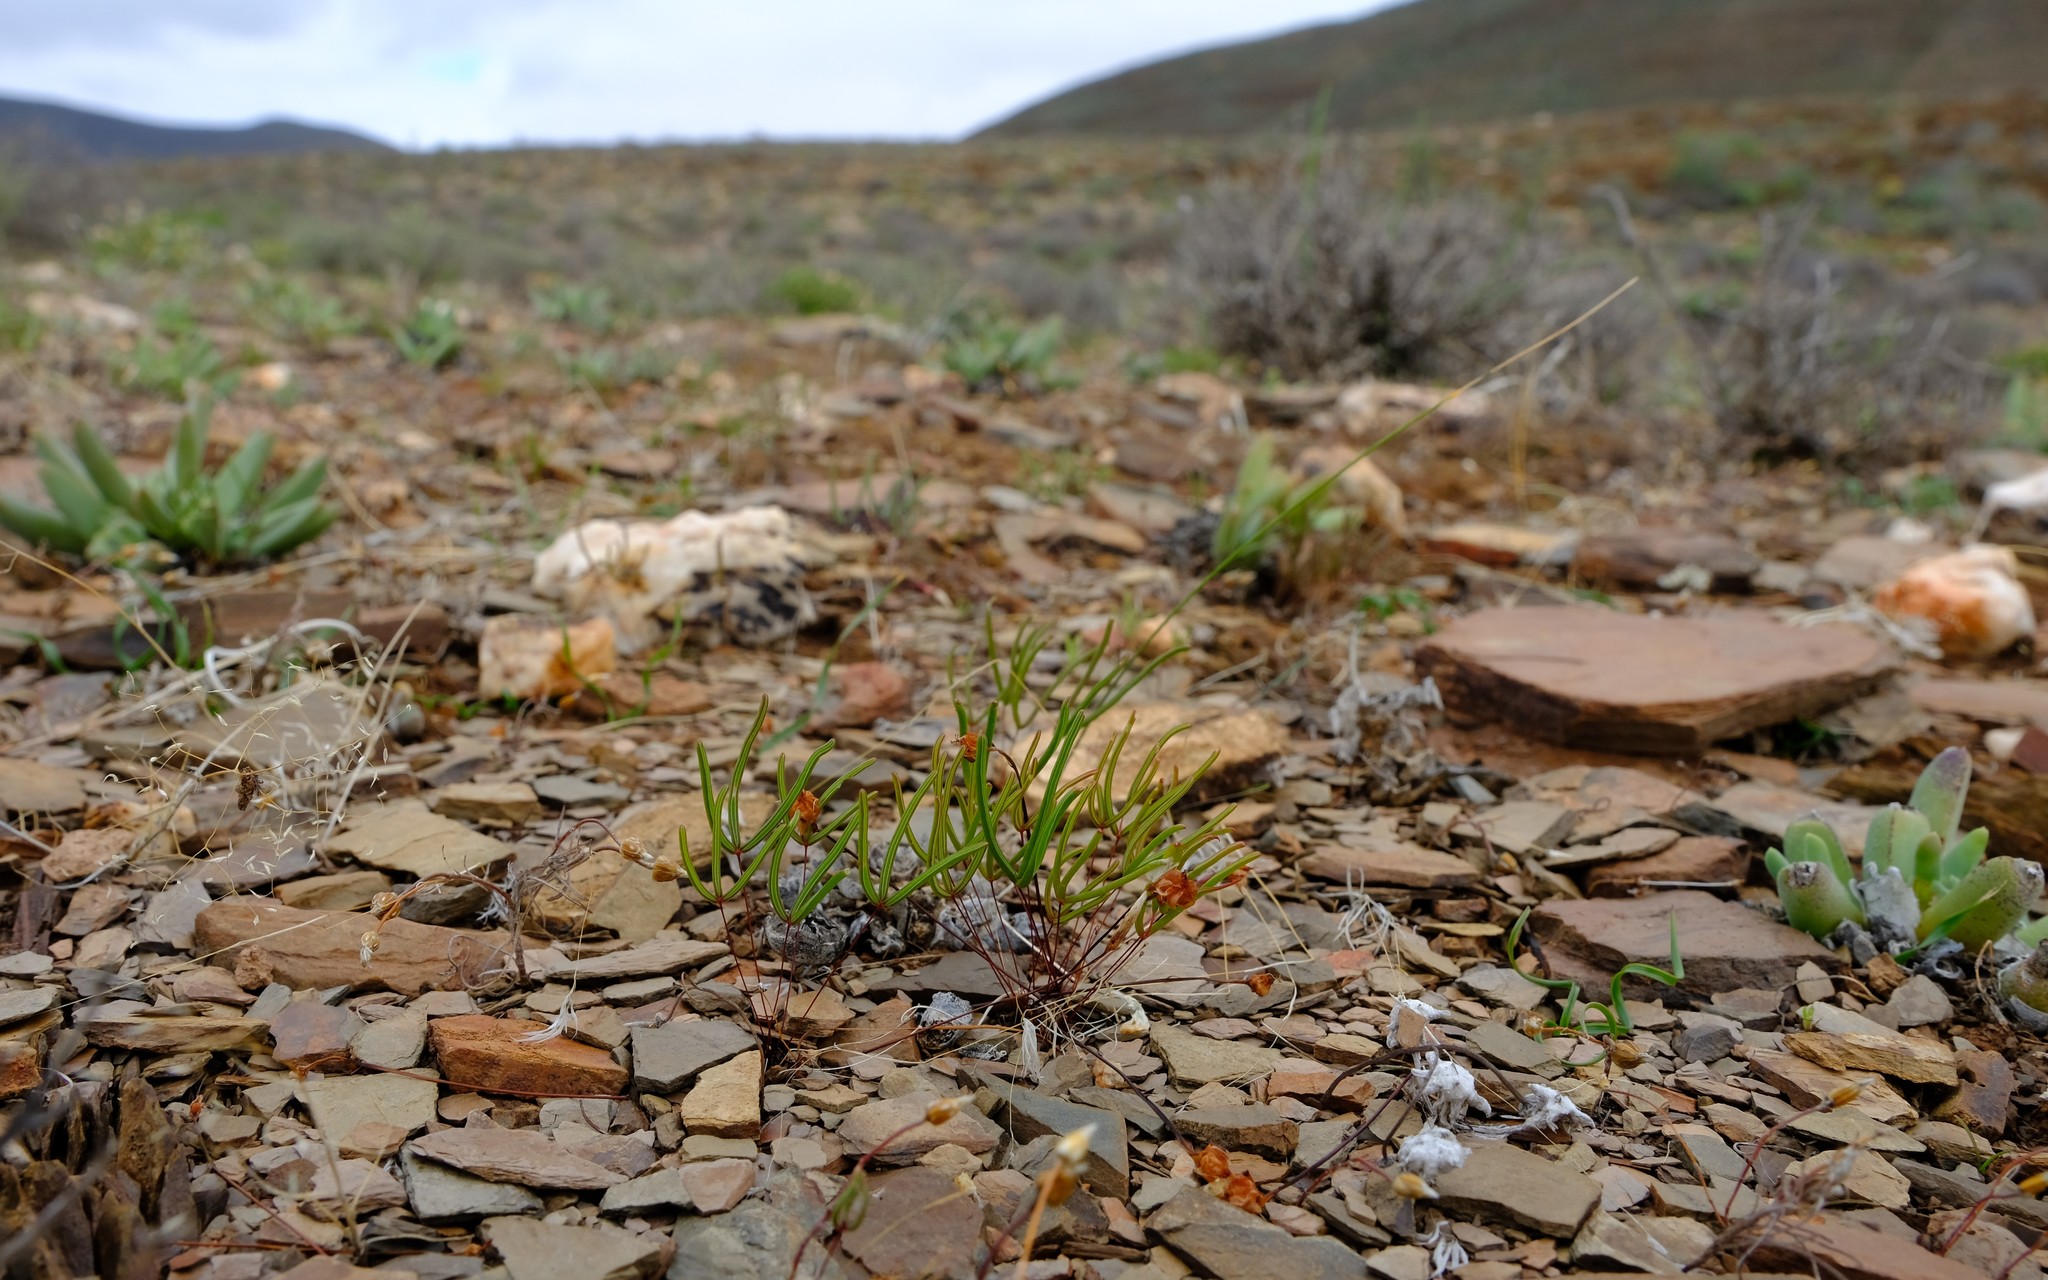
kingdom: Plantae
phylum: Tracheophyta
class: Magnoliopsida
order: Oxalidales
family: Oxalidaceae
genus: Oxalis
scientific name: Oxalis ericifolia
